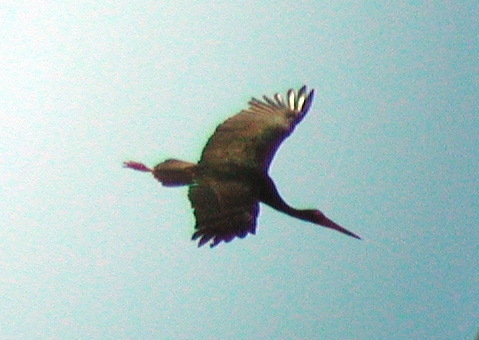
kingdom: Animalia
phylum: Chordata
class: Aves
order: Ciconiiformes
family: Ciconiidae
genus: Ciconia
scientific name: Ciconia nigra
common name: Black stork
